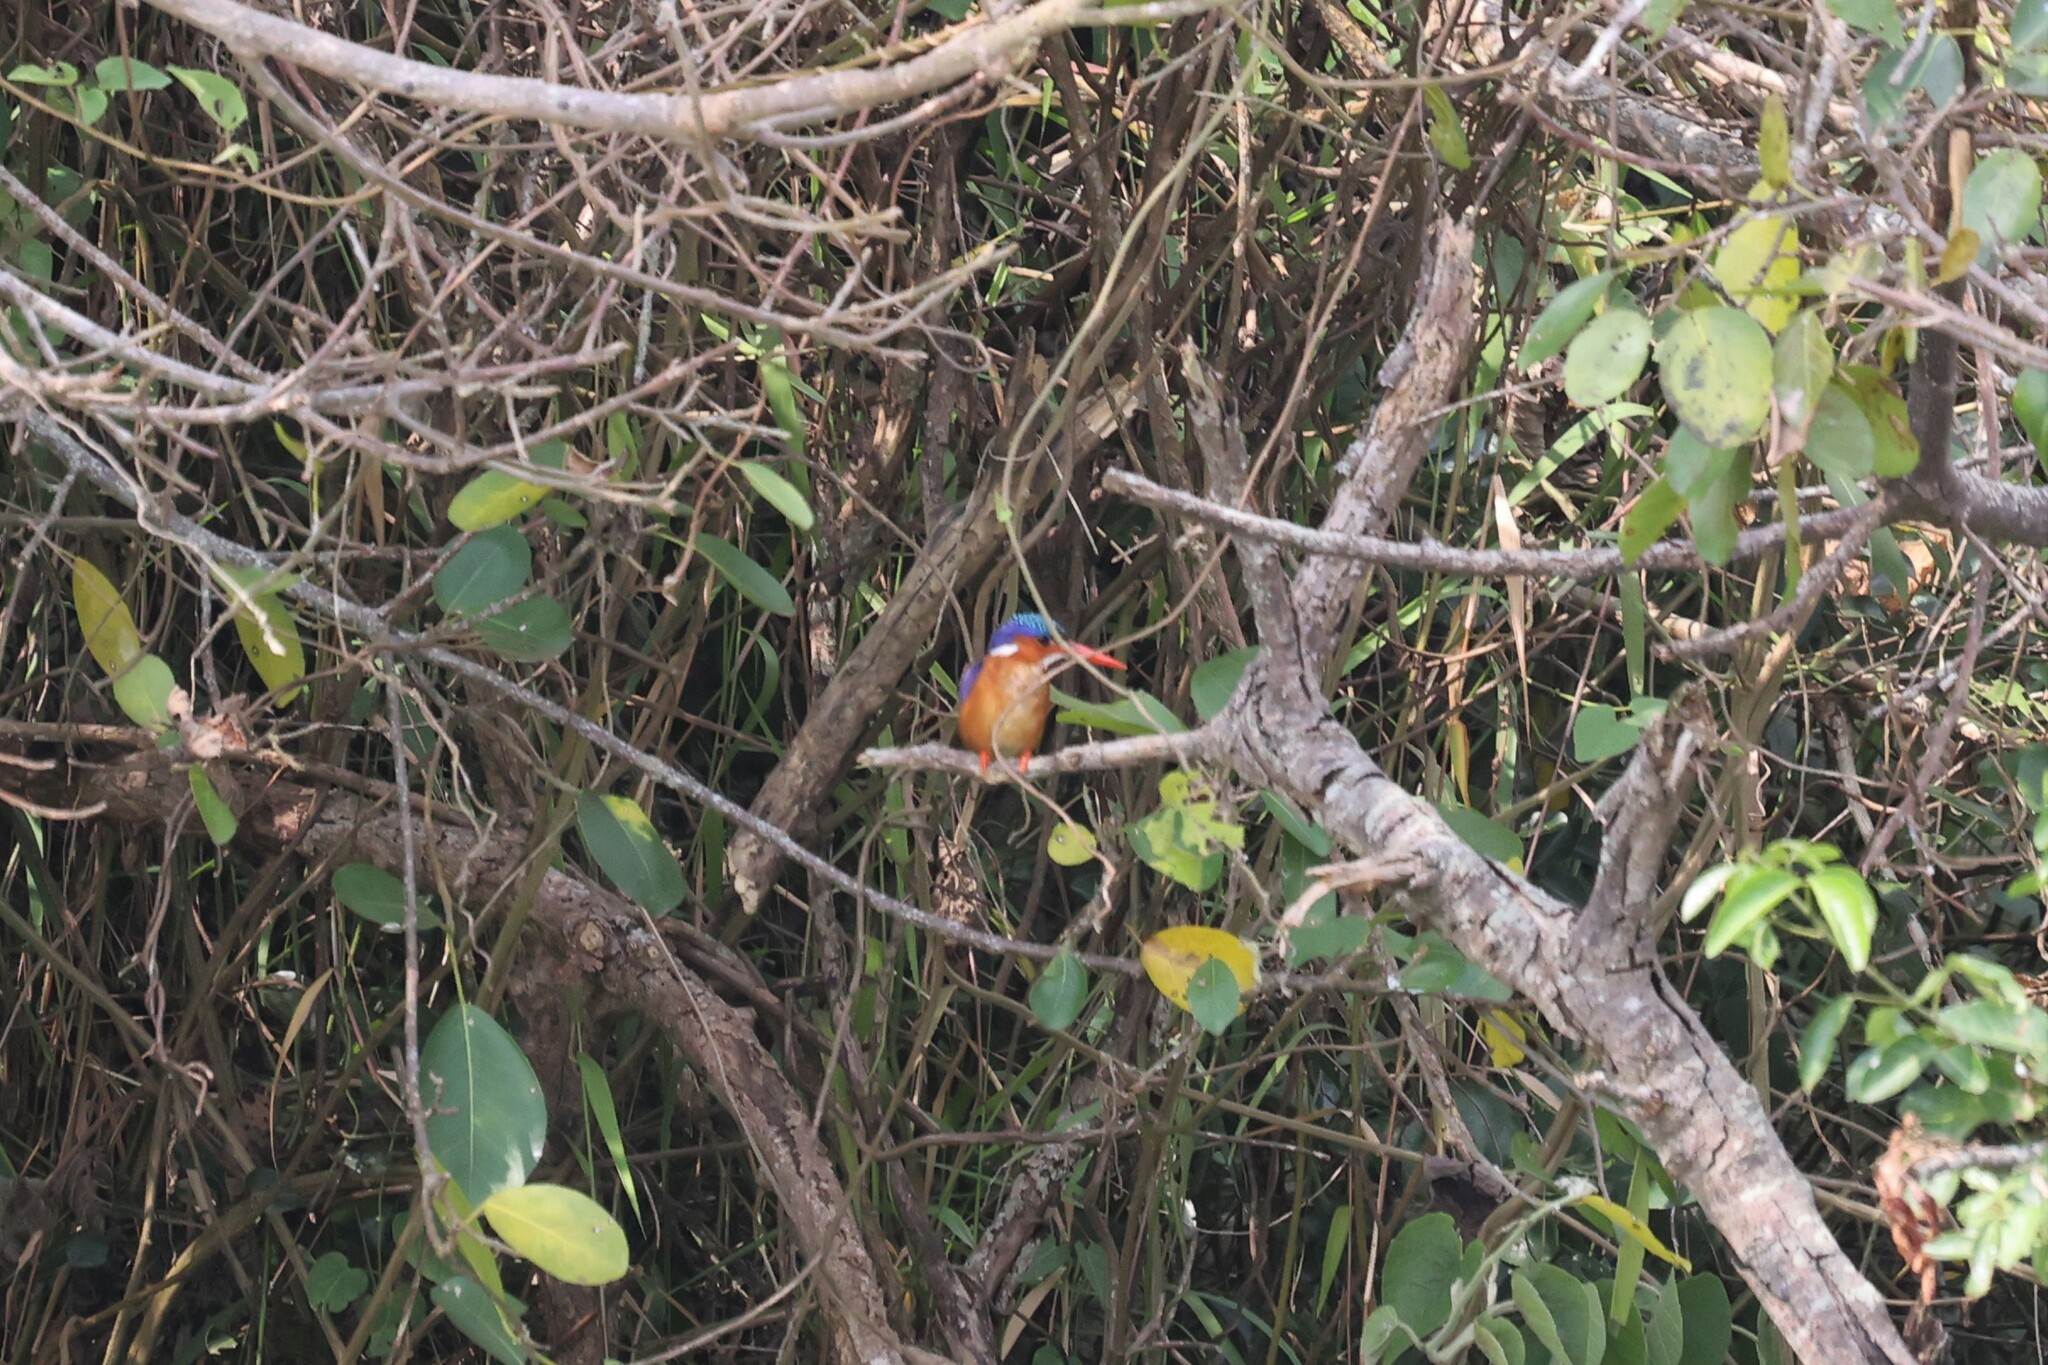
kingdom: Animalia
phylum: Chordata
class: Aves
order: Coraciiformes
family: Alcedinidae
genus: Corythornis
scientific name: Corythornis cristatus
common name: Malachite kingfisher
